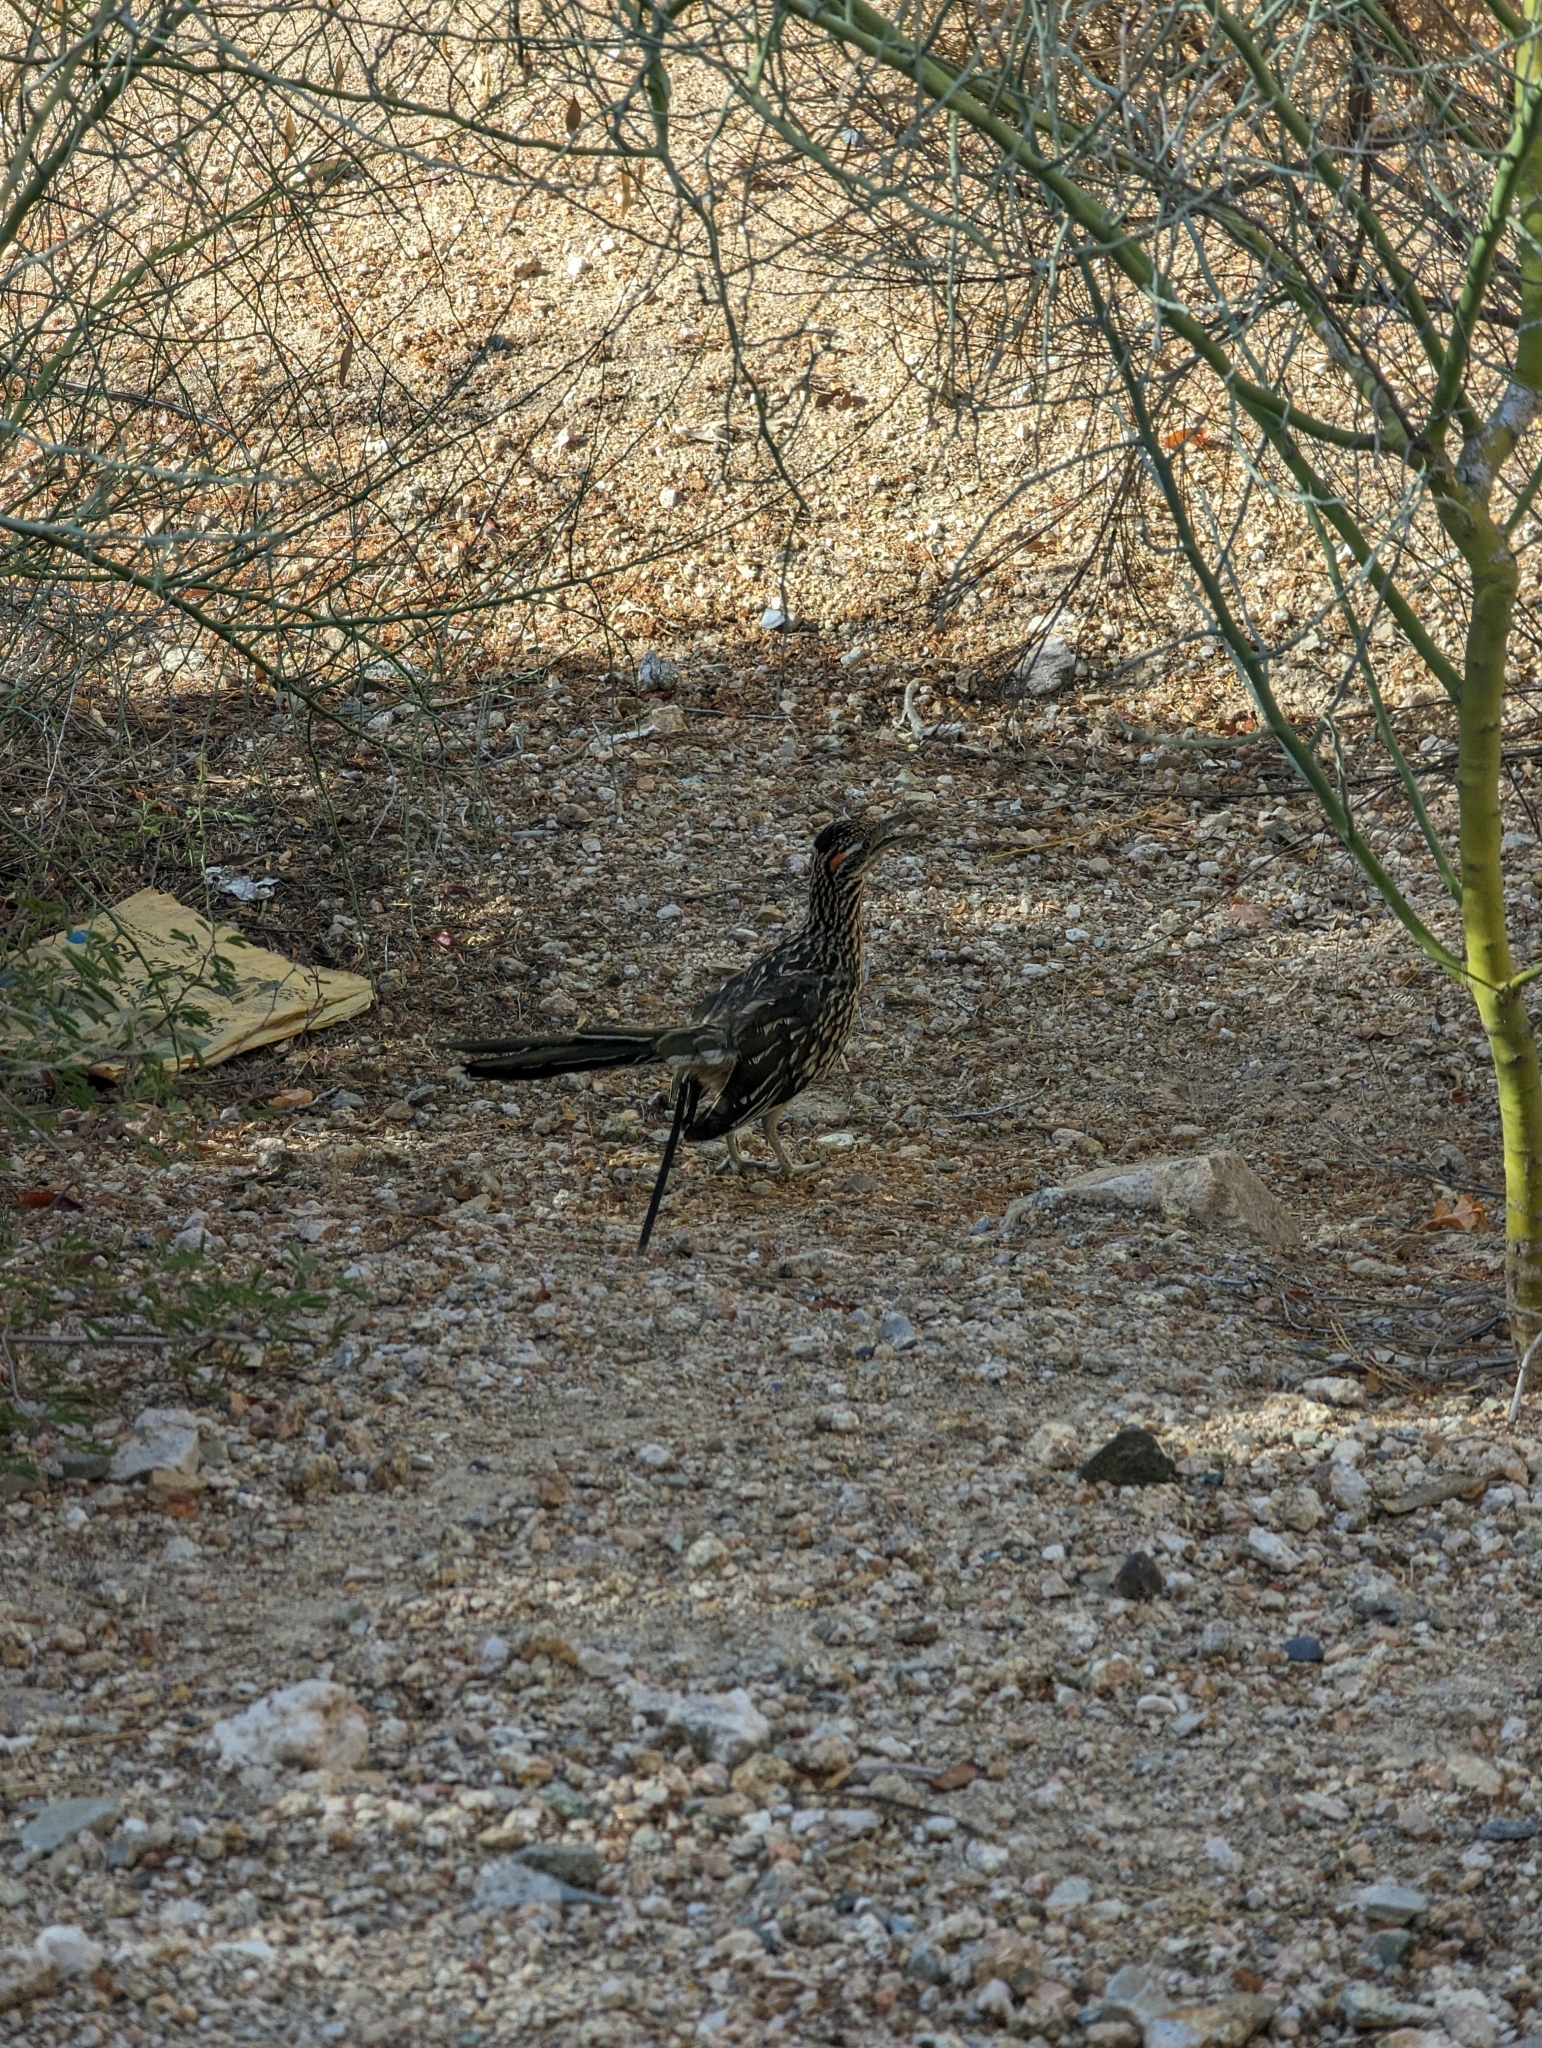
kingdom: Animalia
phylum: Chordata
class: Aves
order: Cuculiformes
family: Cuculidae
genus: Geococcyx
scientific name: Geococcyx californianus
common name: Greater roadrunner
